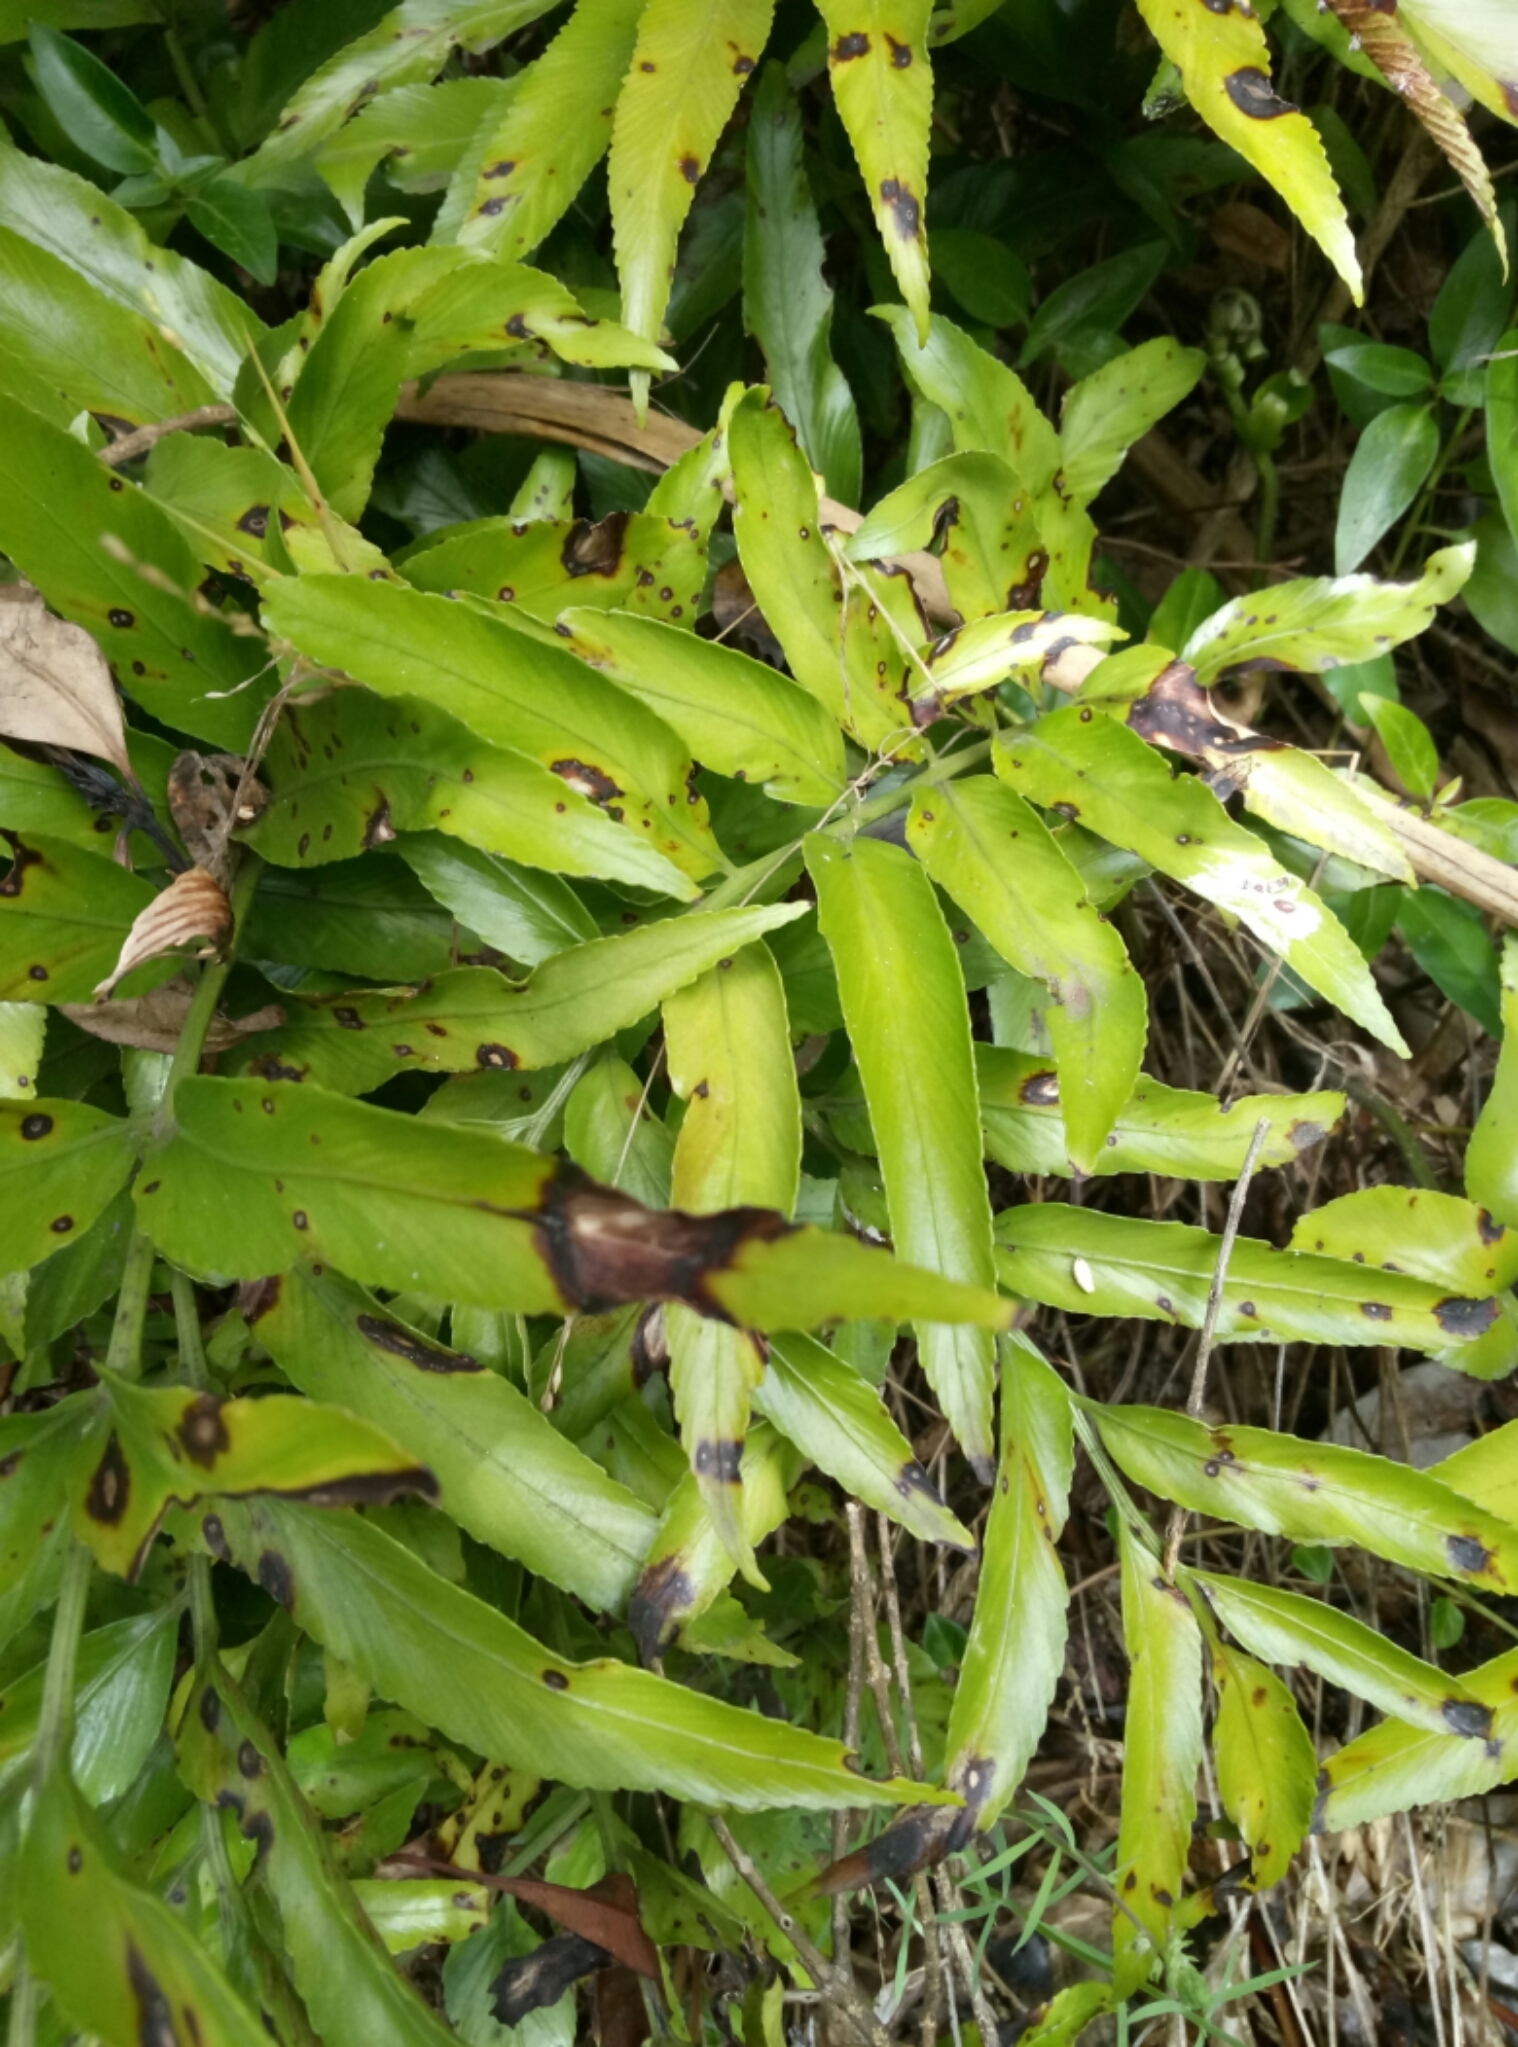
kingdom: Plantae
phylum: Tracheophyta
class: Polypodiopsida
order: Polypodiales
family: Aspleniaceae
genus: Asplenium
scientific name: Asplenium oblongifolium
